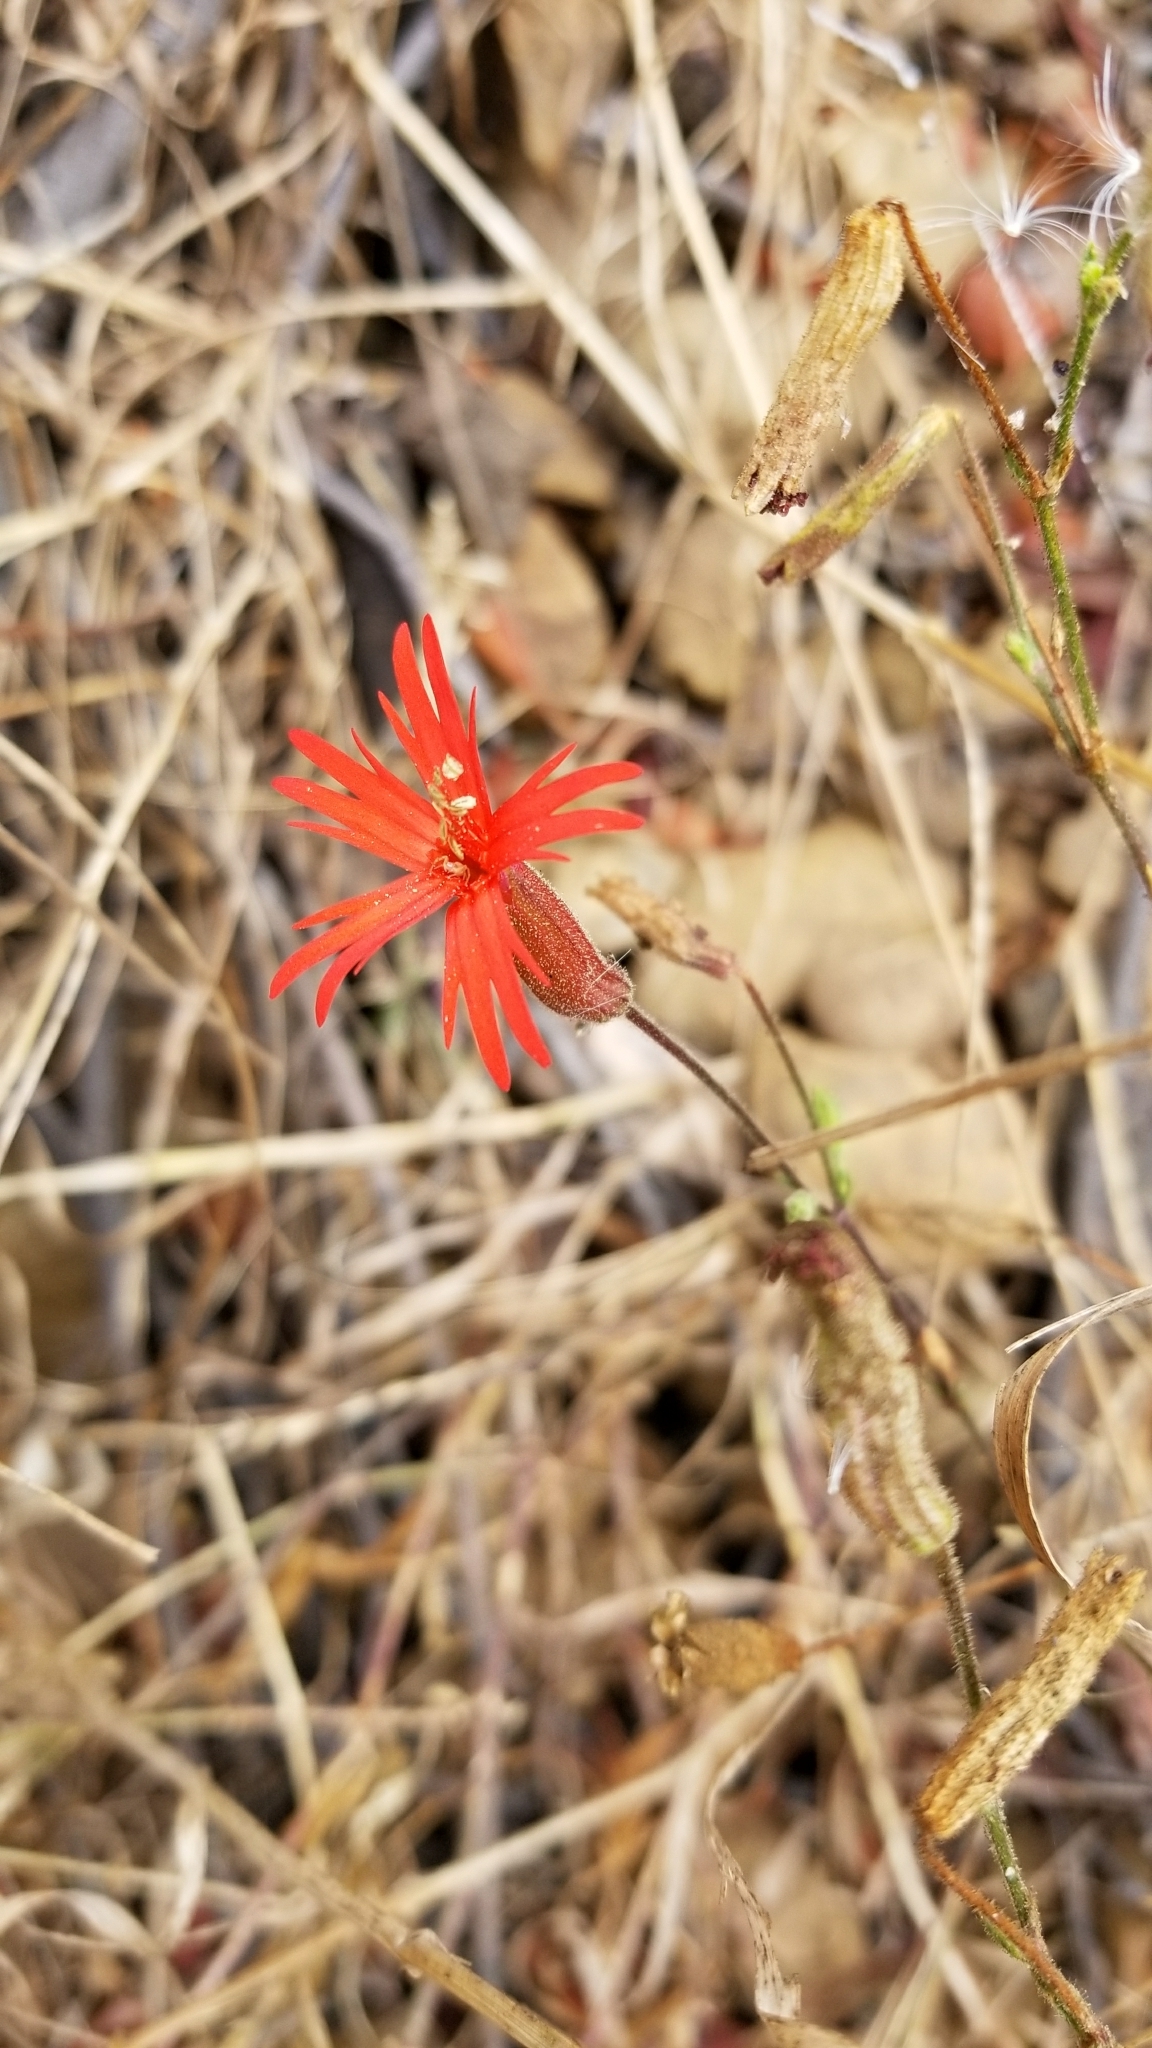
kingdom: Plantae
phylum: Tracheophyta
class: Magnoliopsida
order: Caryophyllales
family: Caryophyllaceae
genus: Silene
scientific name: Silene laciniata
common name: Indian-pink
